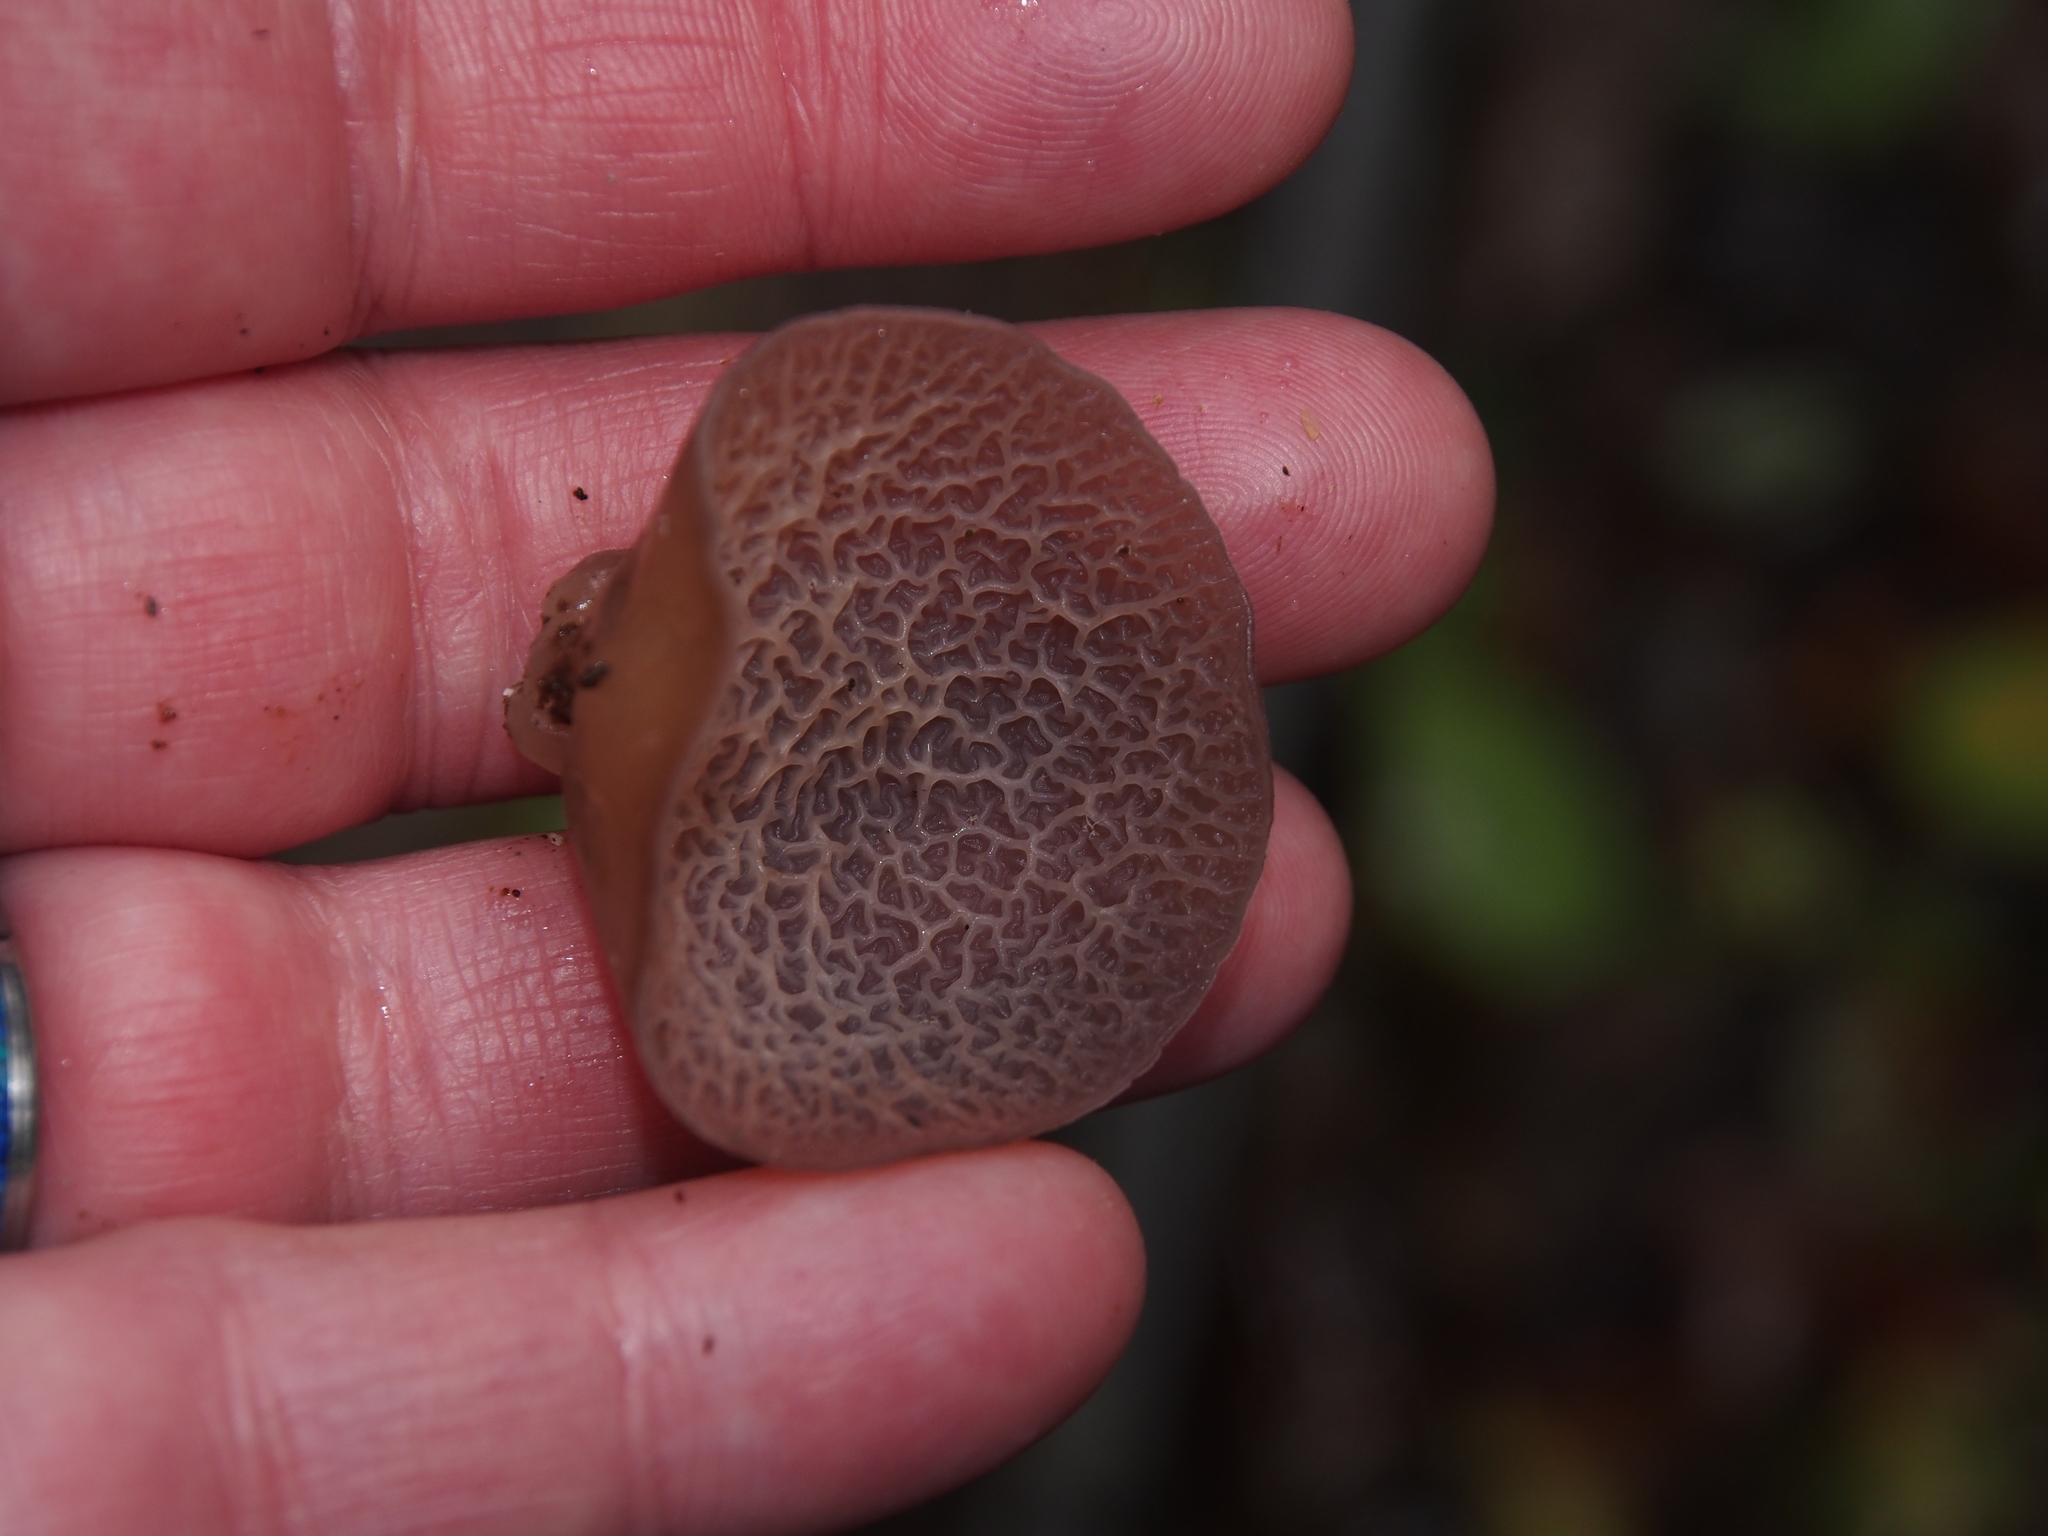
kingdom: Fungi
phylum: Basidiomycota
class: Agaricomycetes
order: Auriculariales
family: Auriculariaceae
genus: Auricularia
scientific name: Auricularia delicata
